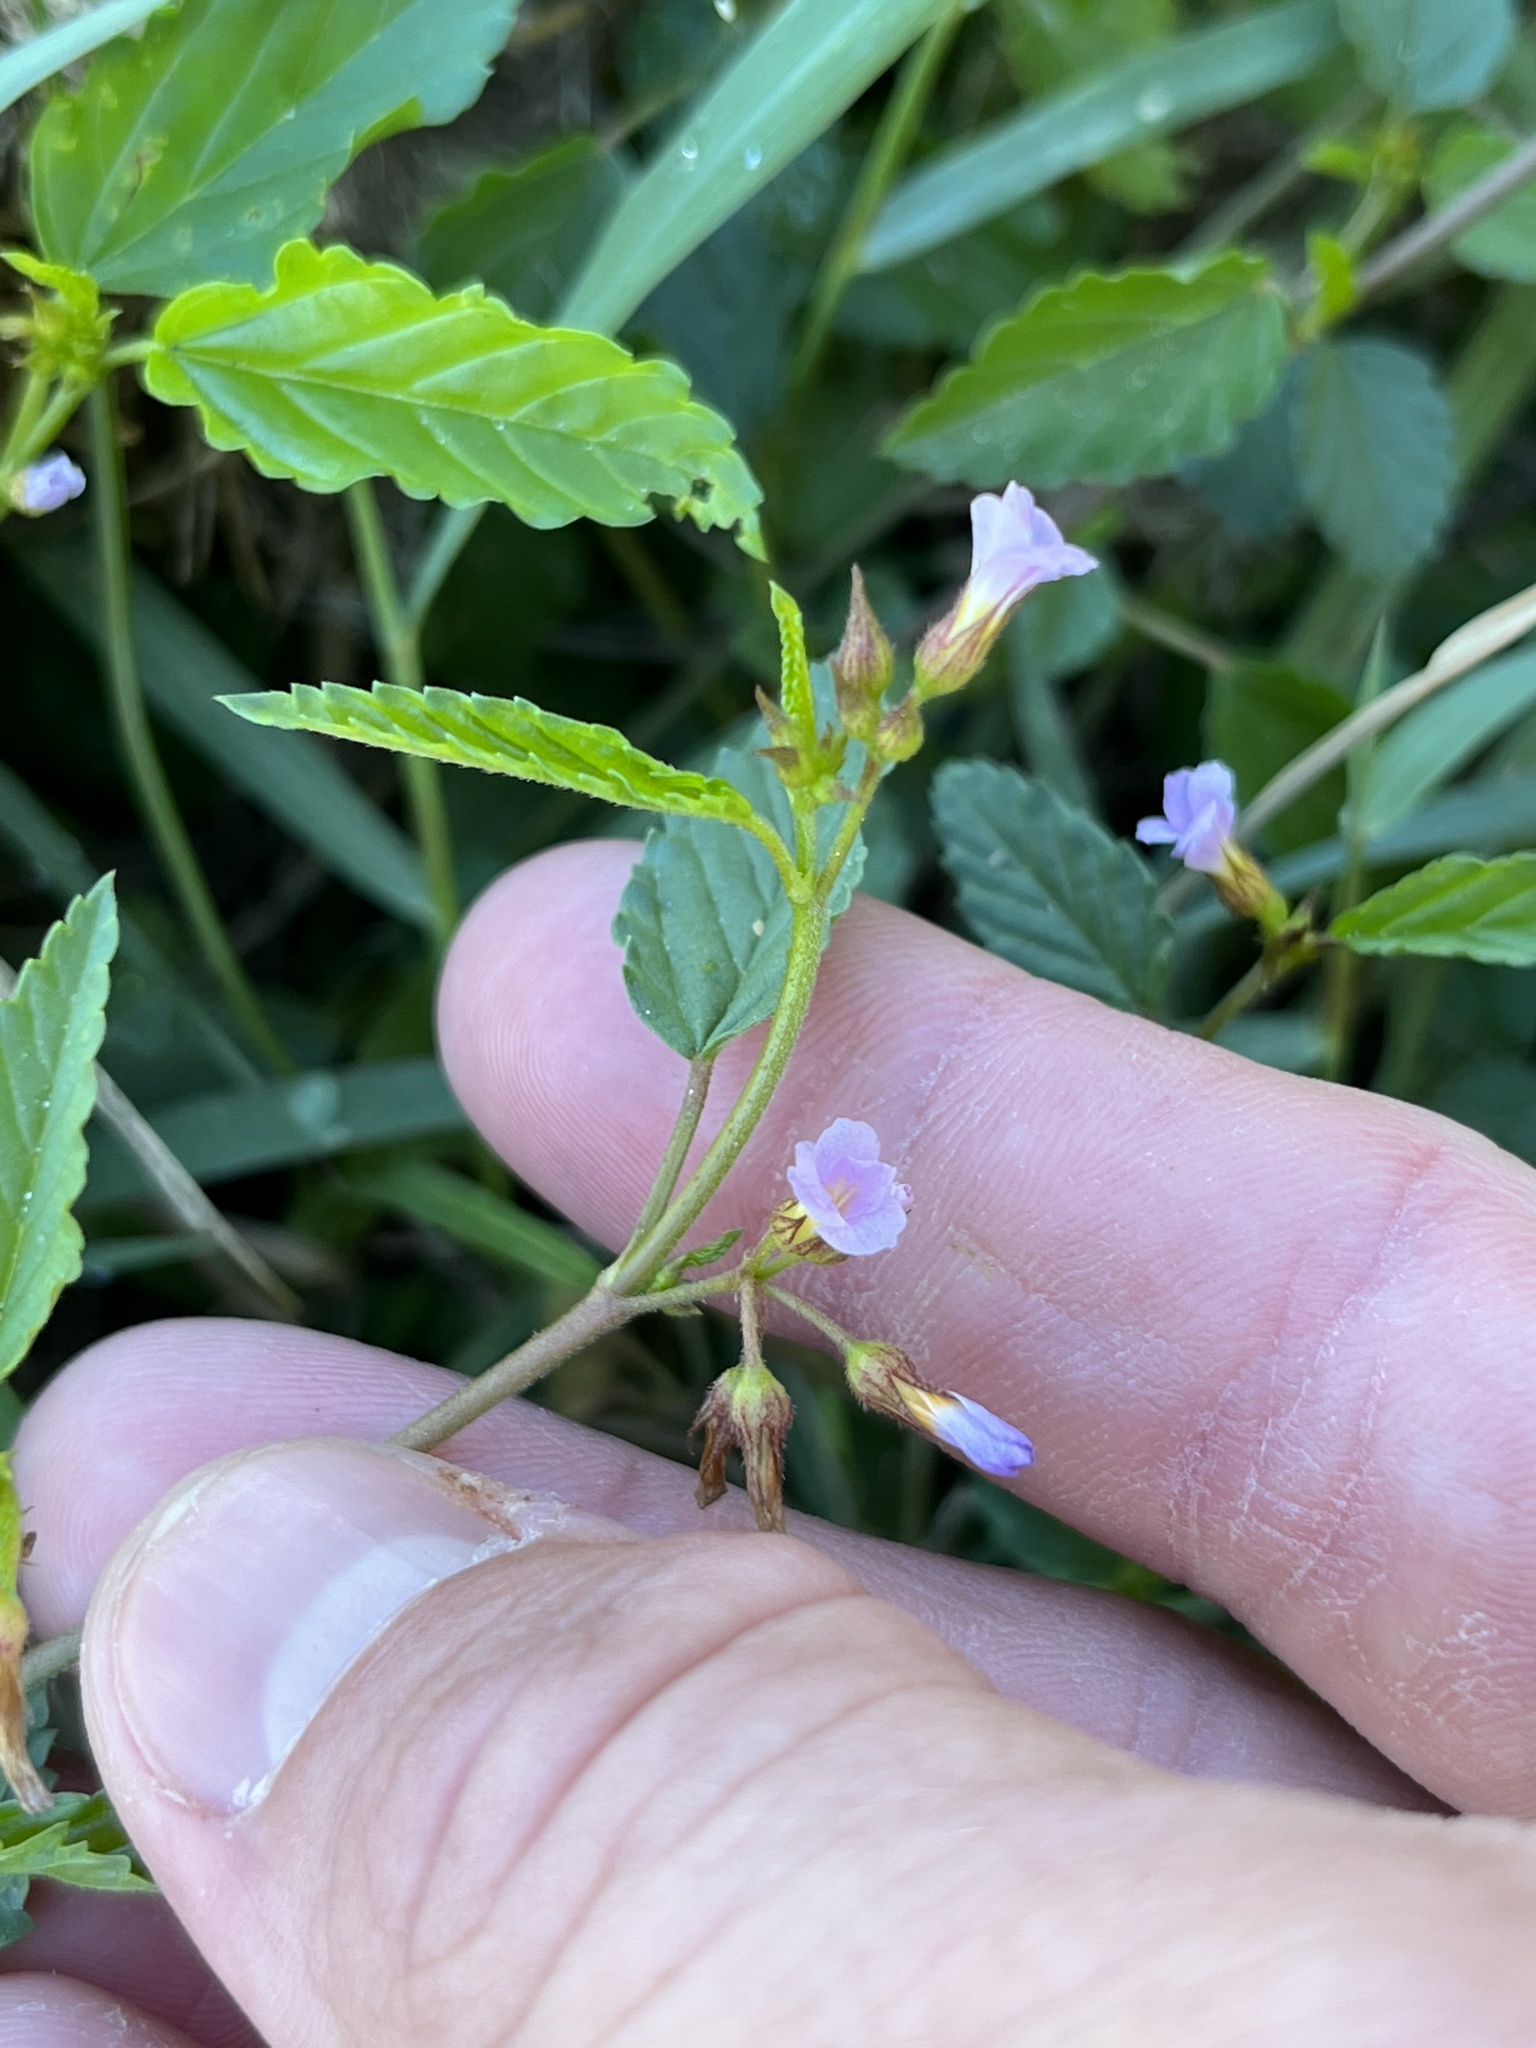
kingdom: Plantae
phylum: Tracheophyta
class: Magnoliopsida
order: Malvales
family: Malvaceae
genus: Melochia
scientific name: Melochia pyramidata
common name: Pyramidflower
